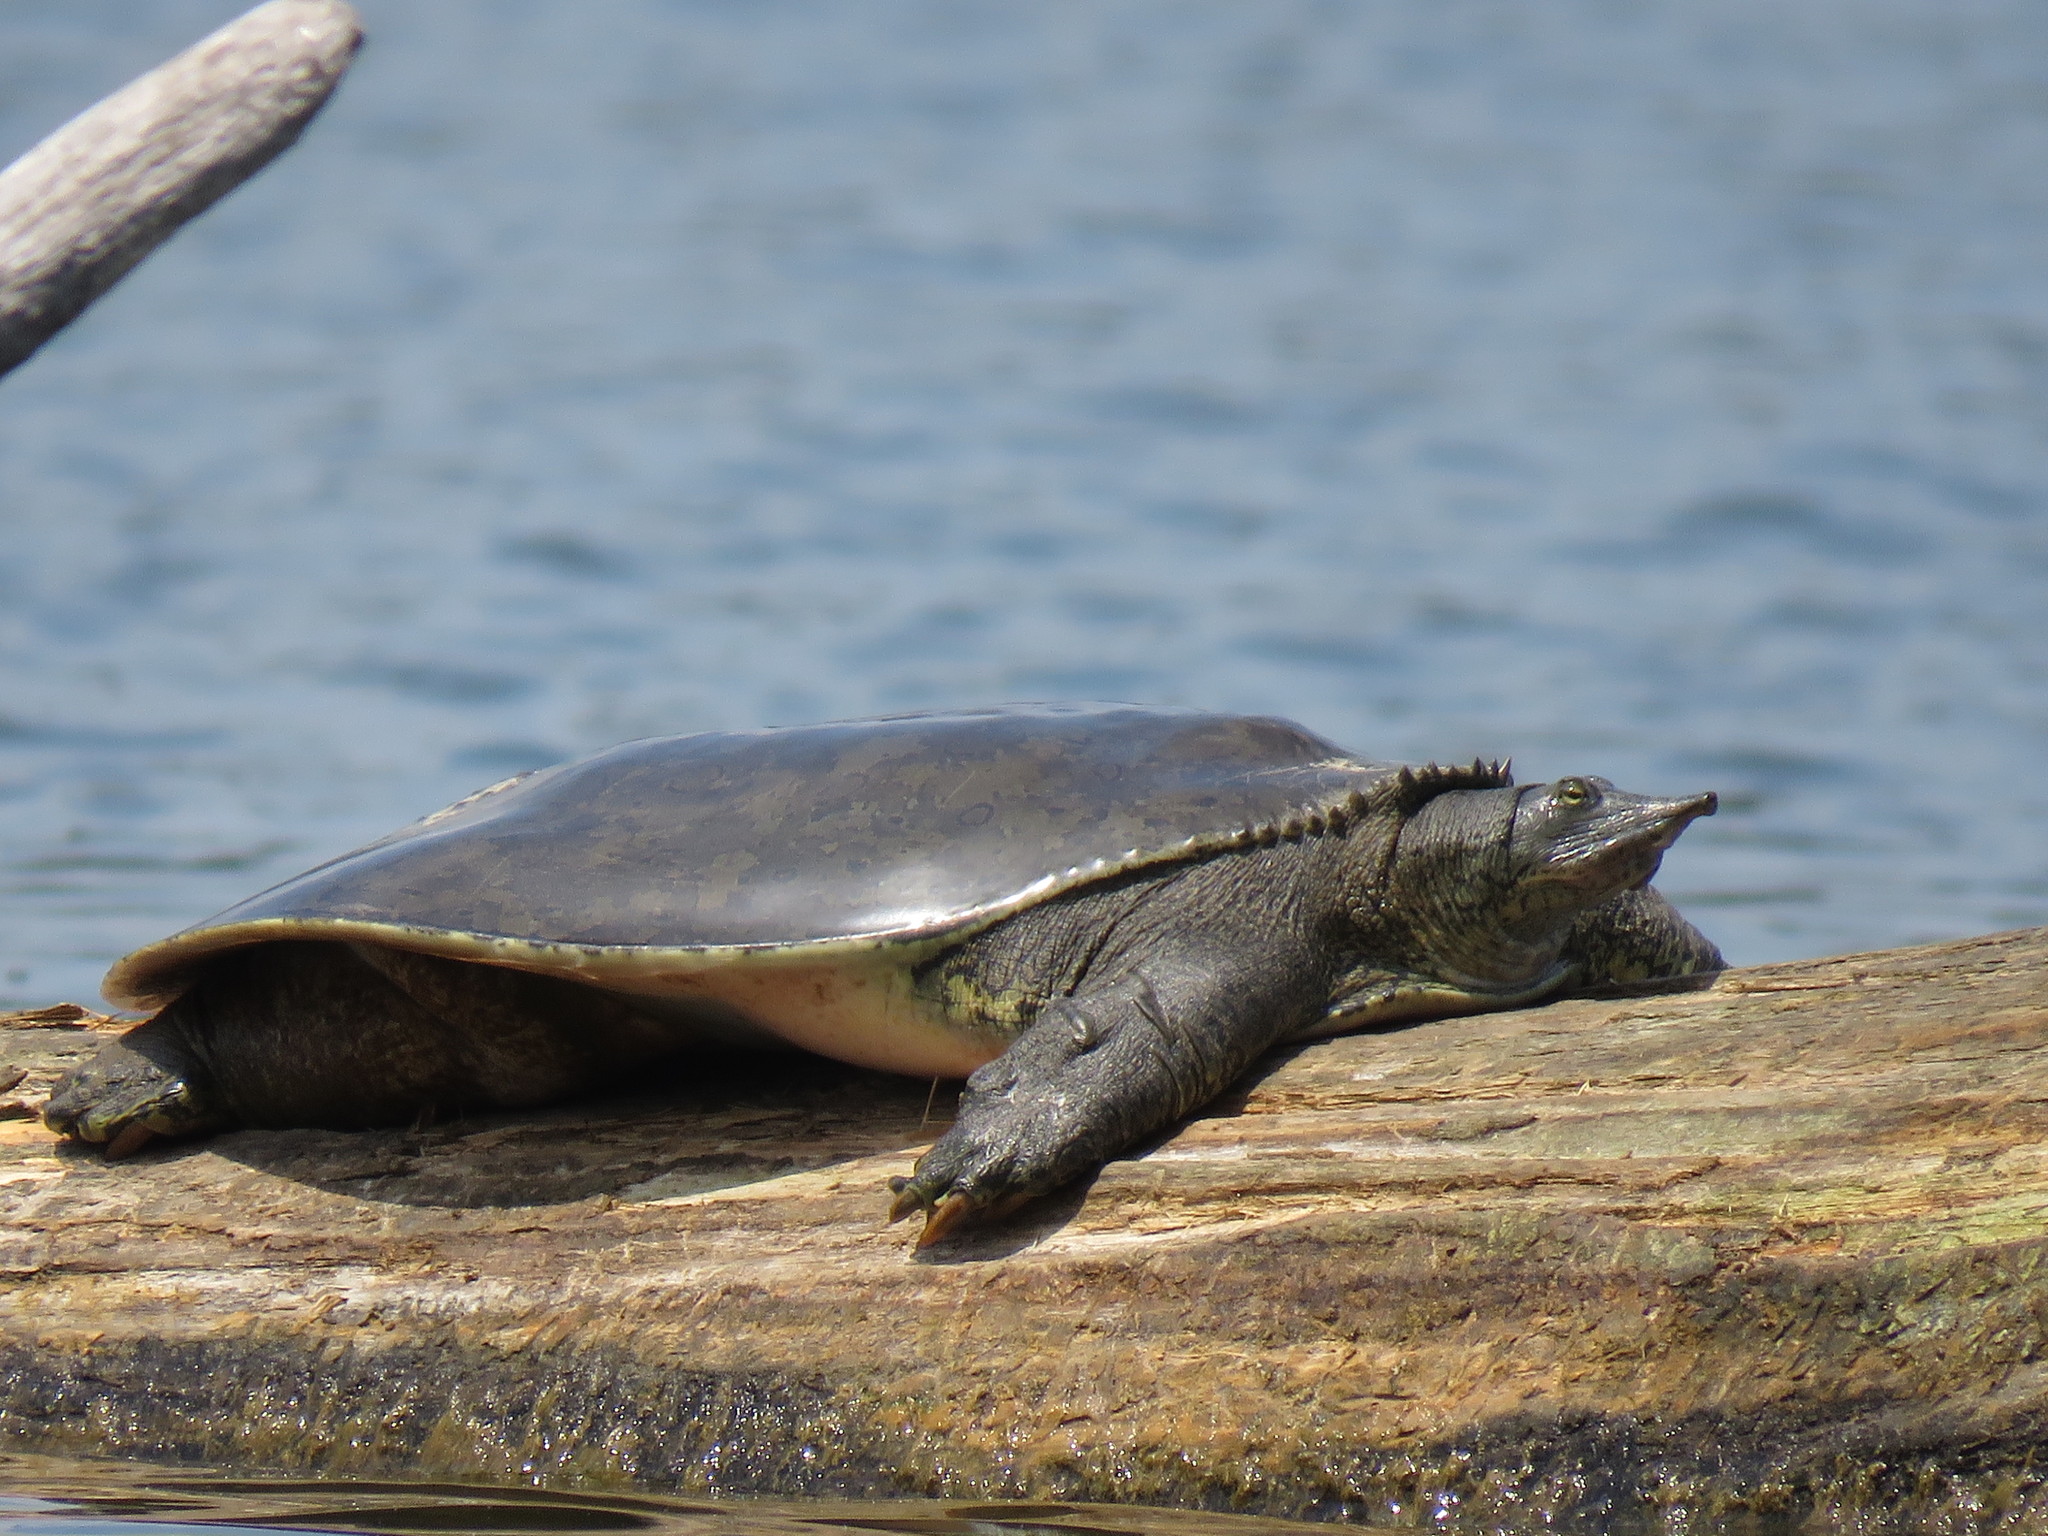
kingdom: Animalia
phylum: Chordata
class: Testudines
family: Trionychidae
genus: Apalone
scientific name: Apalone spinifera
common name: Spiny softshell turtle
